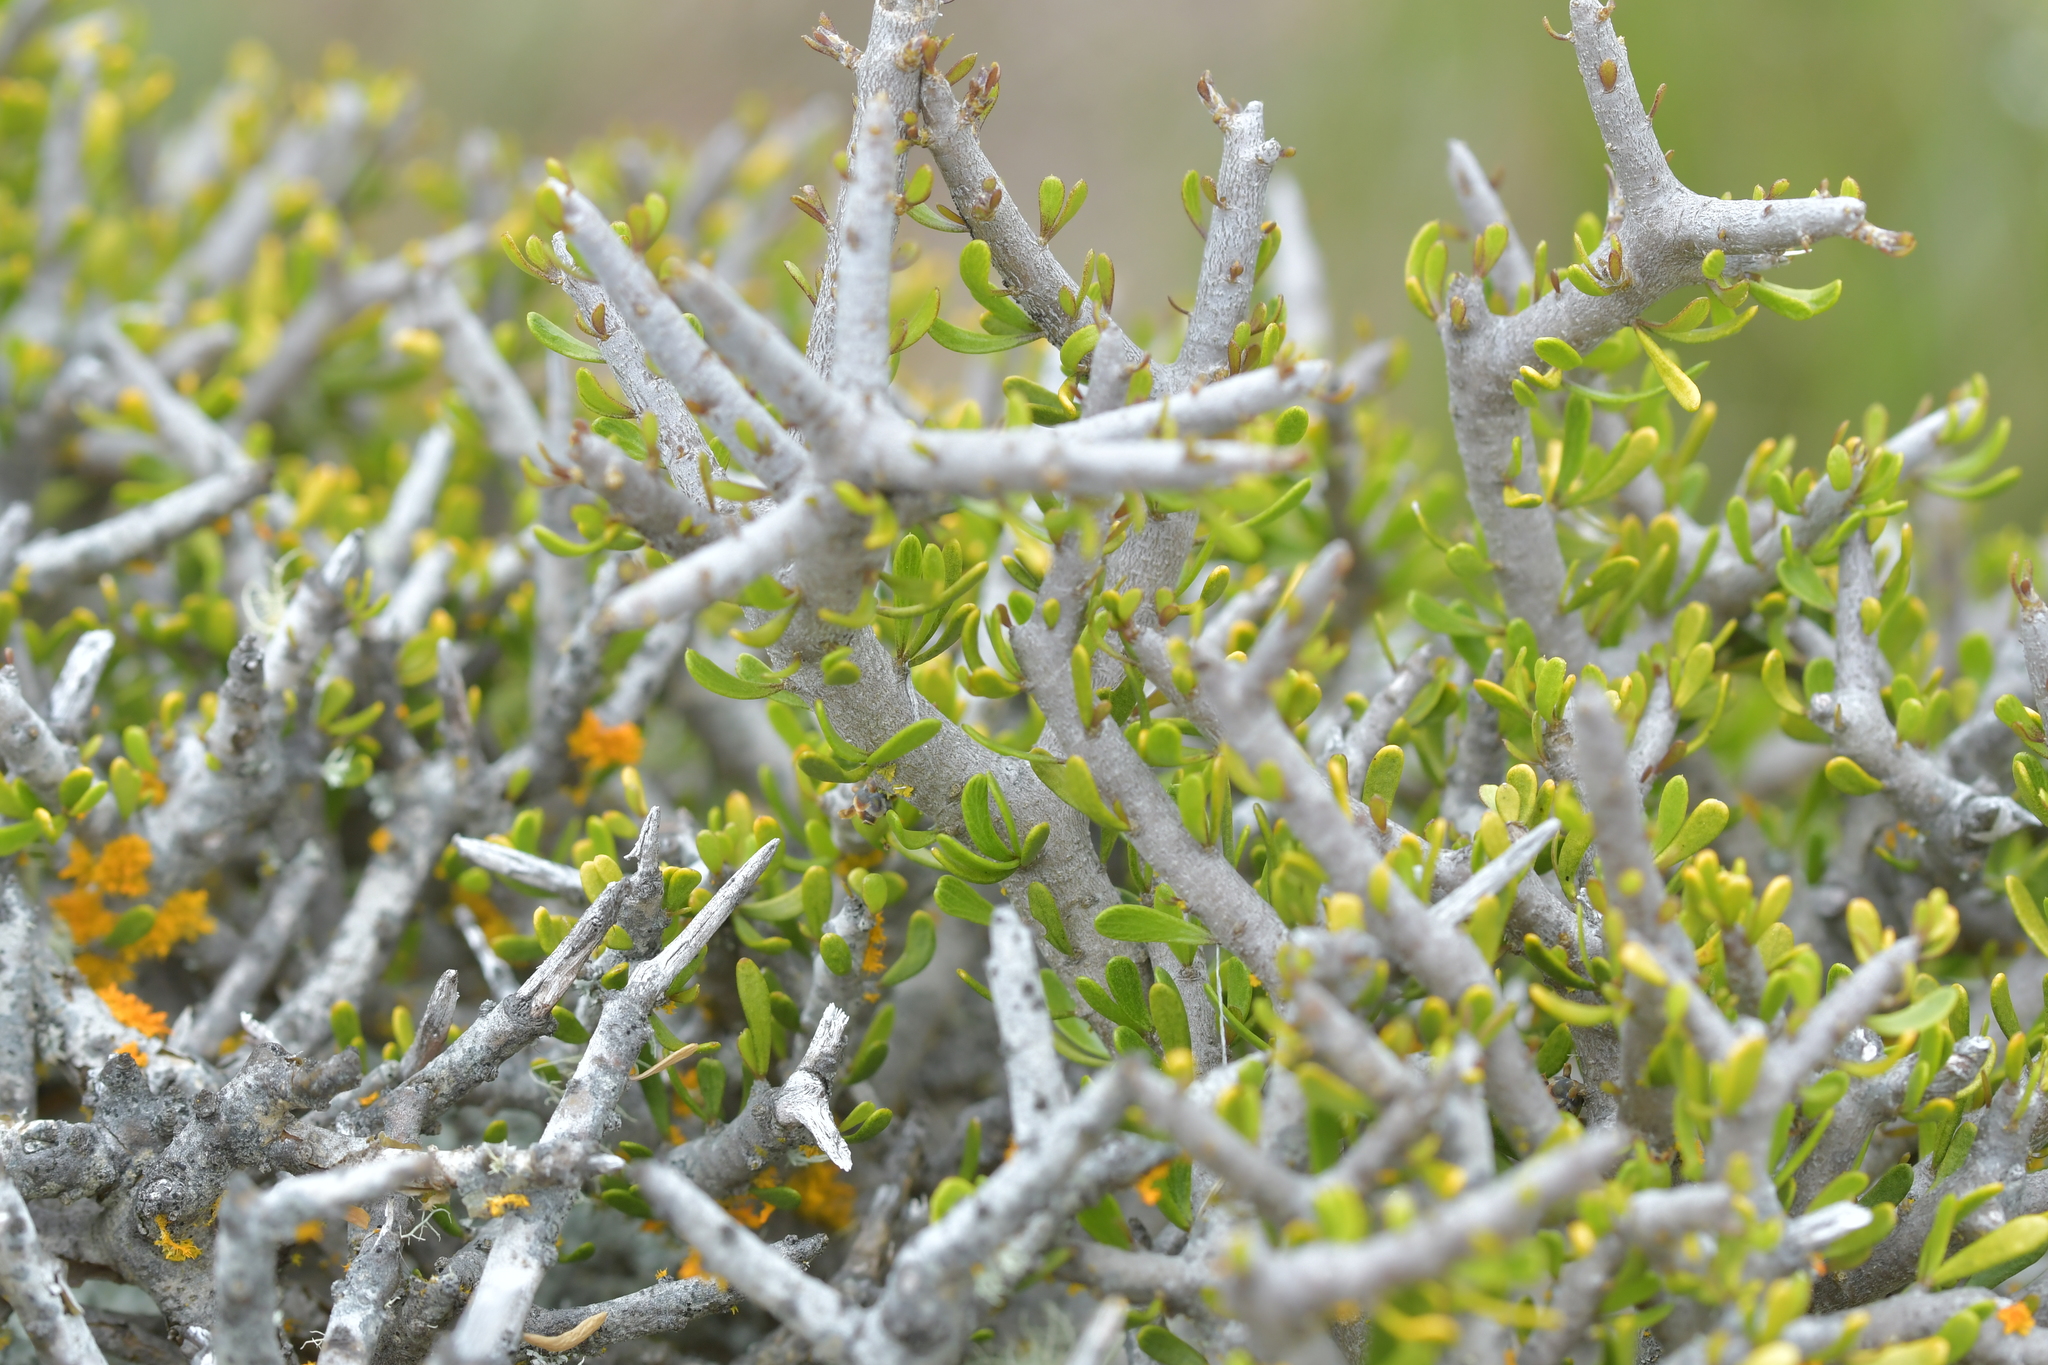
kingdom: Plantae
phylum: Tracheophyta
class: Magnoliopsida
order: Malpighiales
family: Violaceae
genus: Melicytus
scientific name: Melicytus alpinus
